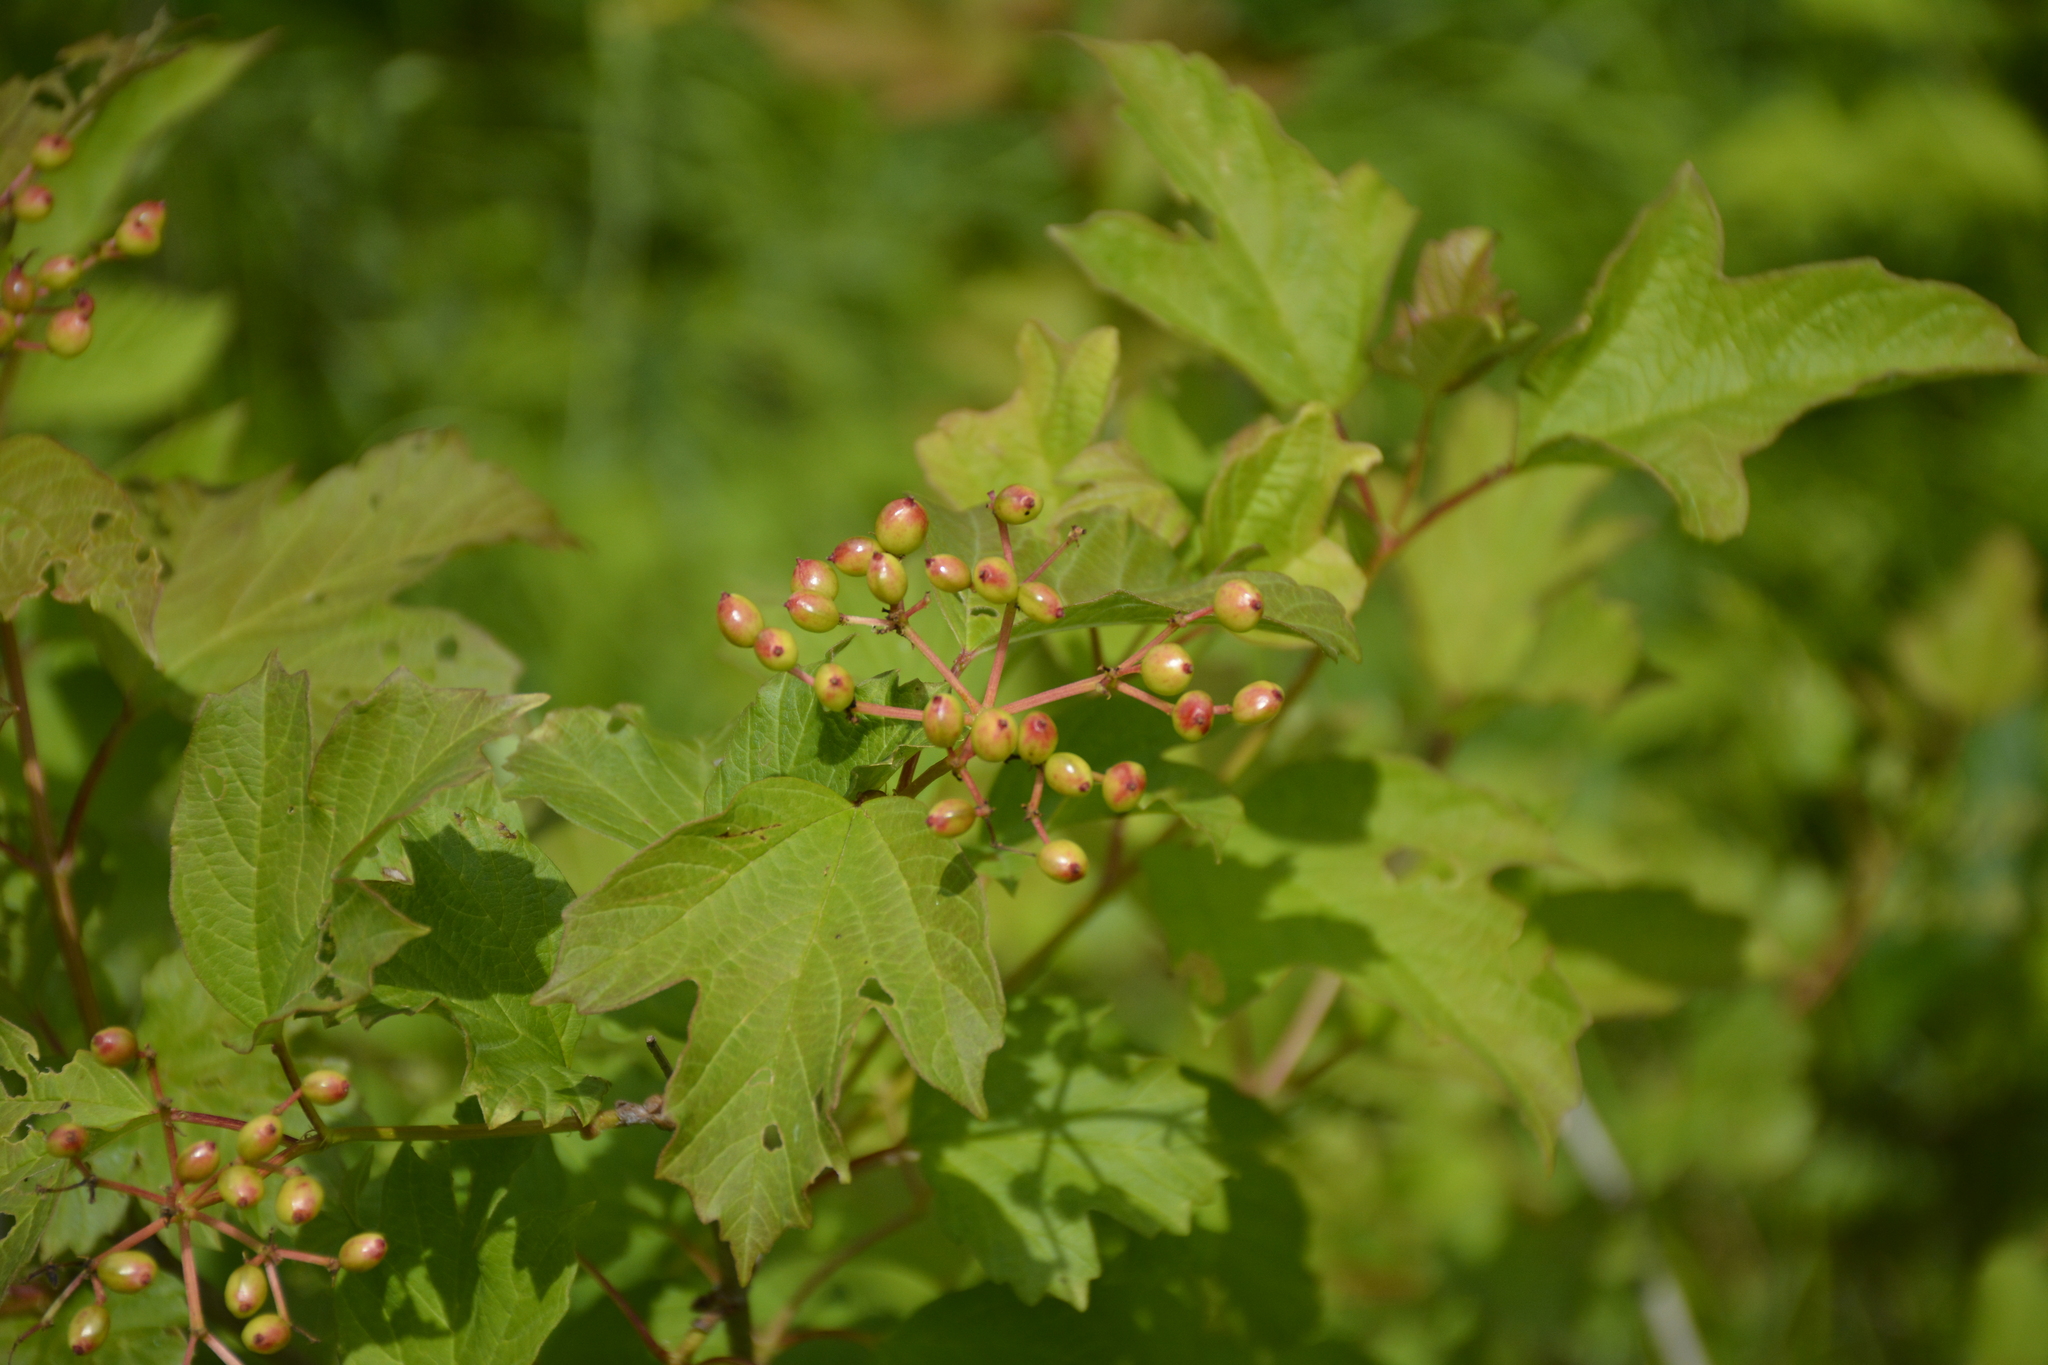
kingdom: Plantae
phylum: Tracheophyta
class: Magnoliopsida
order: Dipsacales
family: Viburnaceae
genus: Viburnum
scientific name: Viburnum opulus
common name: Guelder-rose
